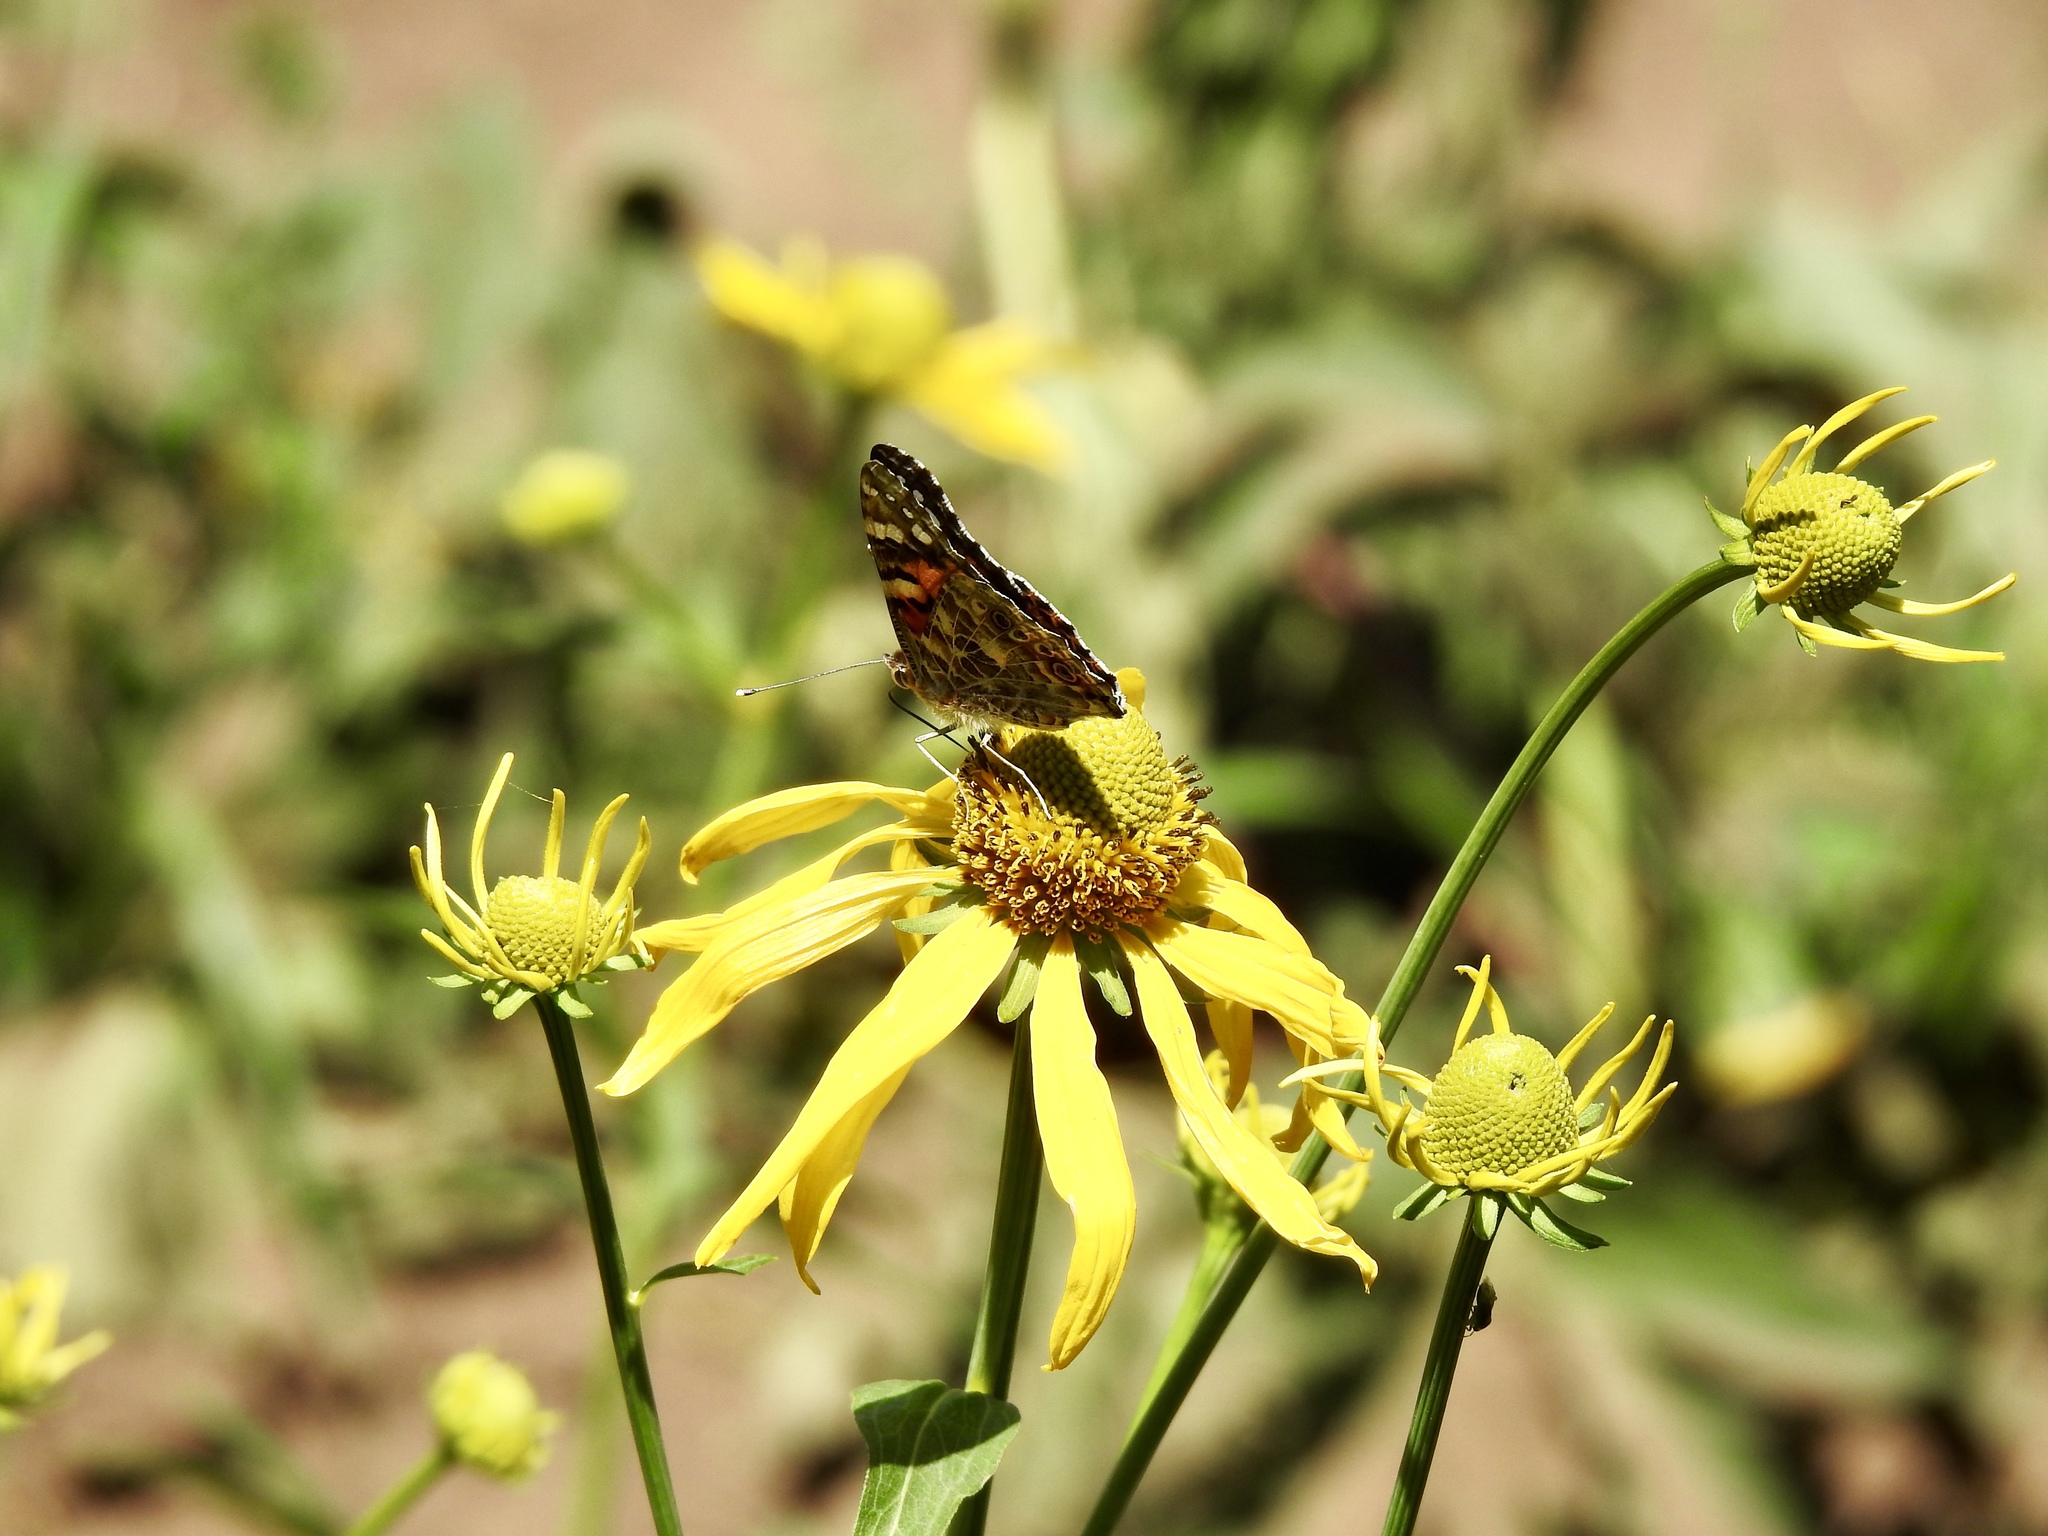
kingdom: Animalia
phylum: Arthropoda
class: Insecta
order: Lepidoptera
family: Nymphalidae
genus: Vanessa
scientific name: Vanessa cardui
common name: Painted lady
